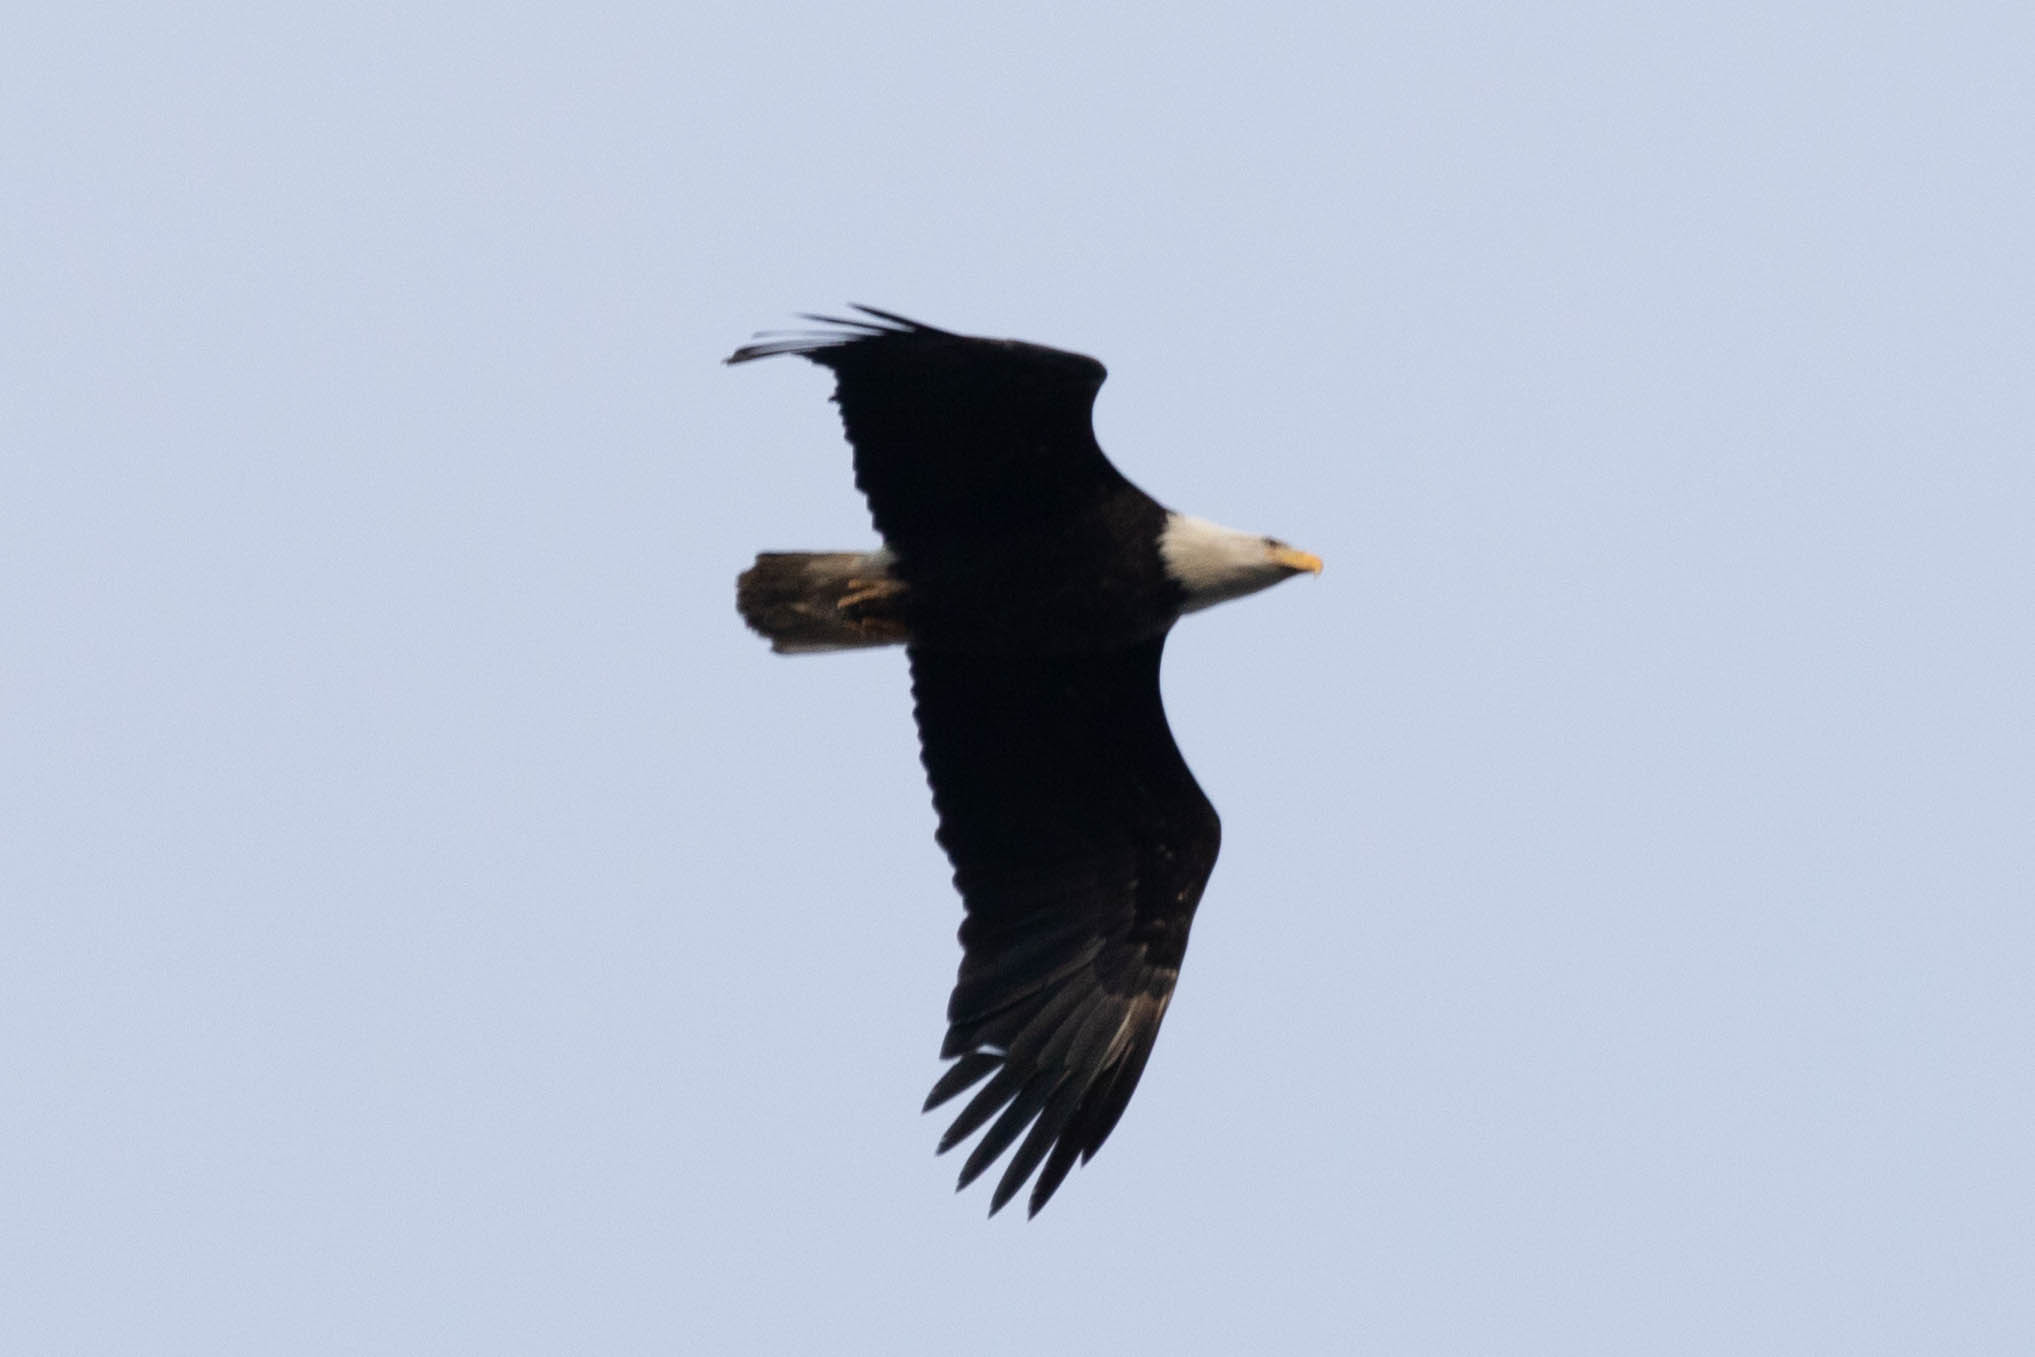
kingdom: Animalia
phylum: Chordata
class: Aves
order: Accipitriformes
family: Accipitridae
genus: Haliaeetus
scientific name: Haliaeetus leucocephalus
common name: Bald eagle
